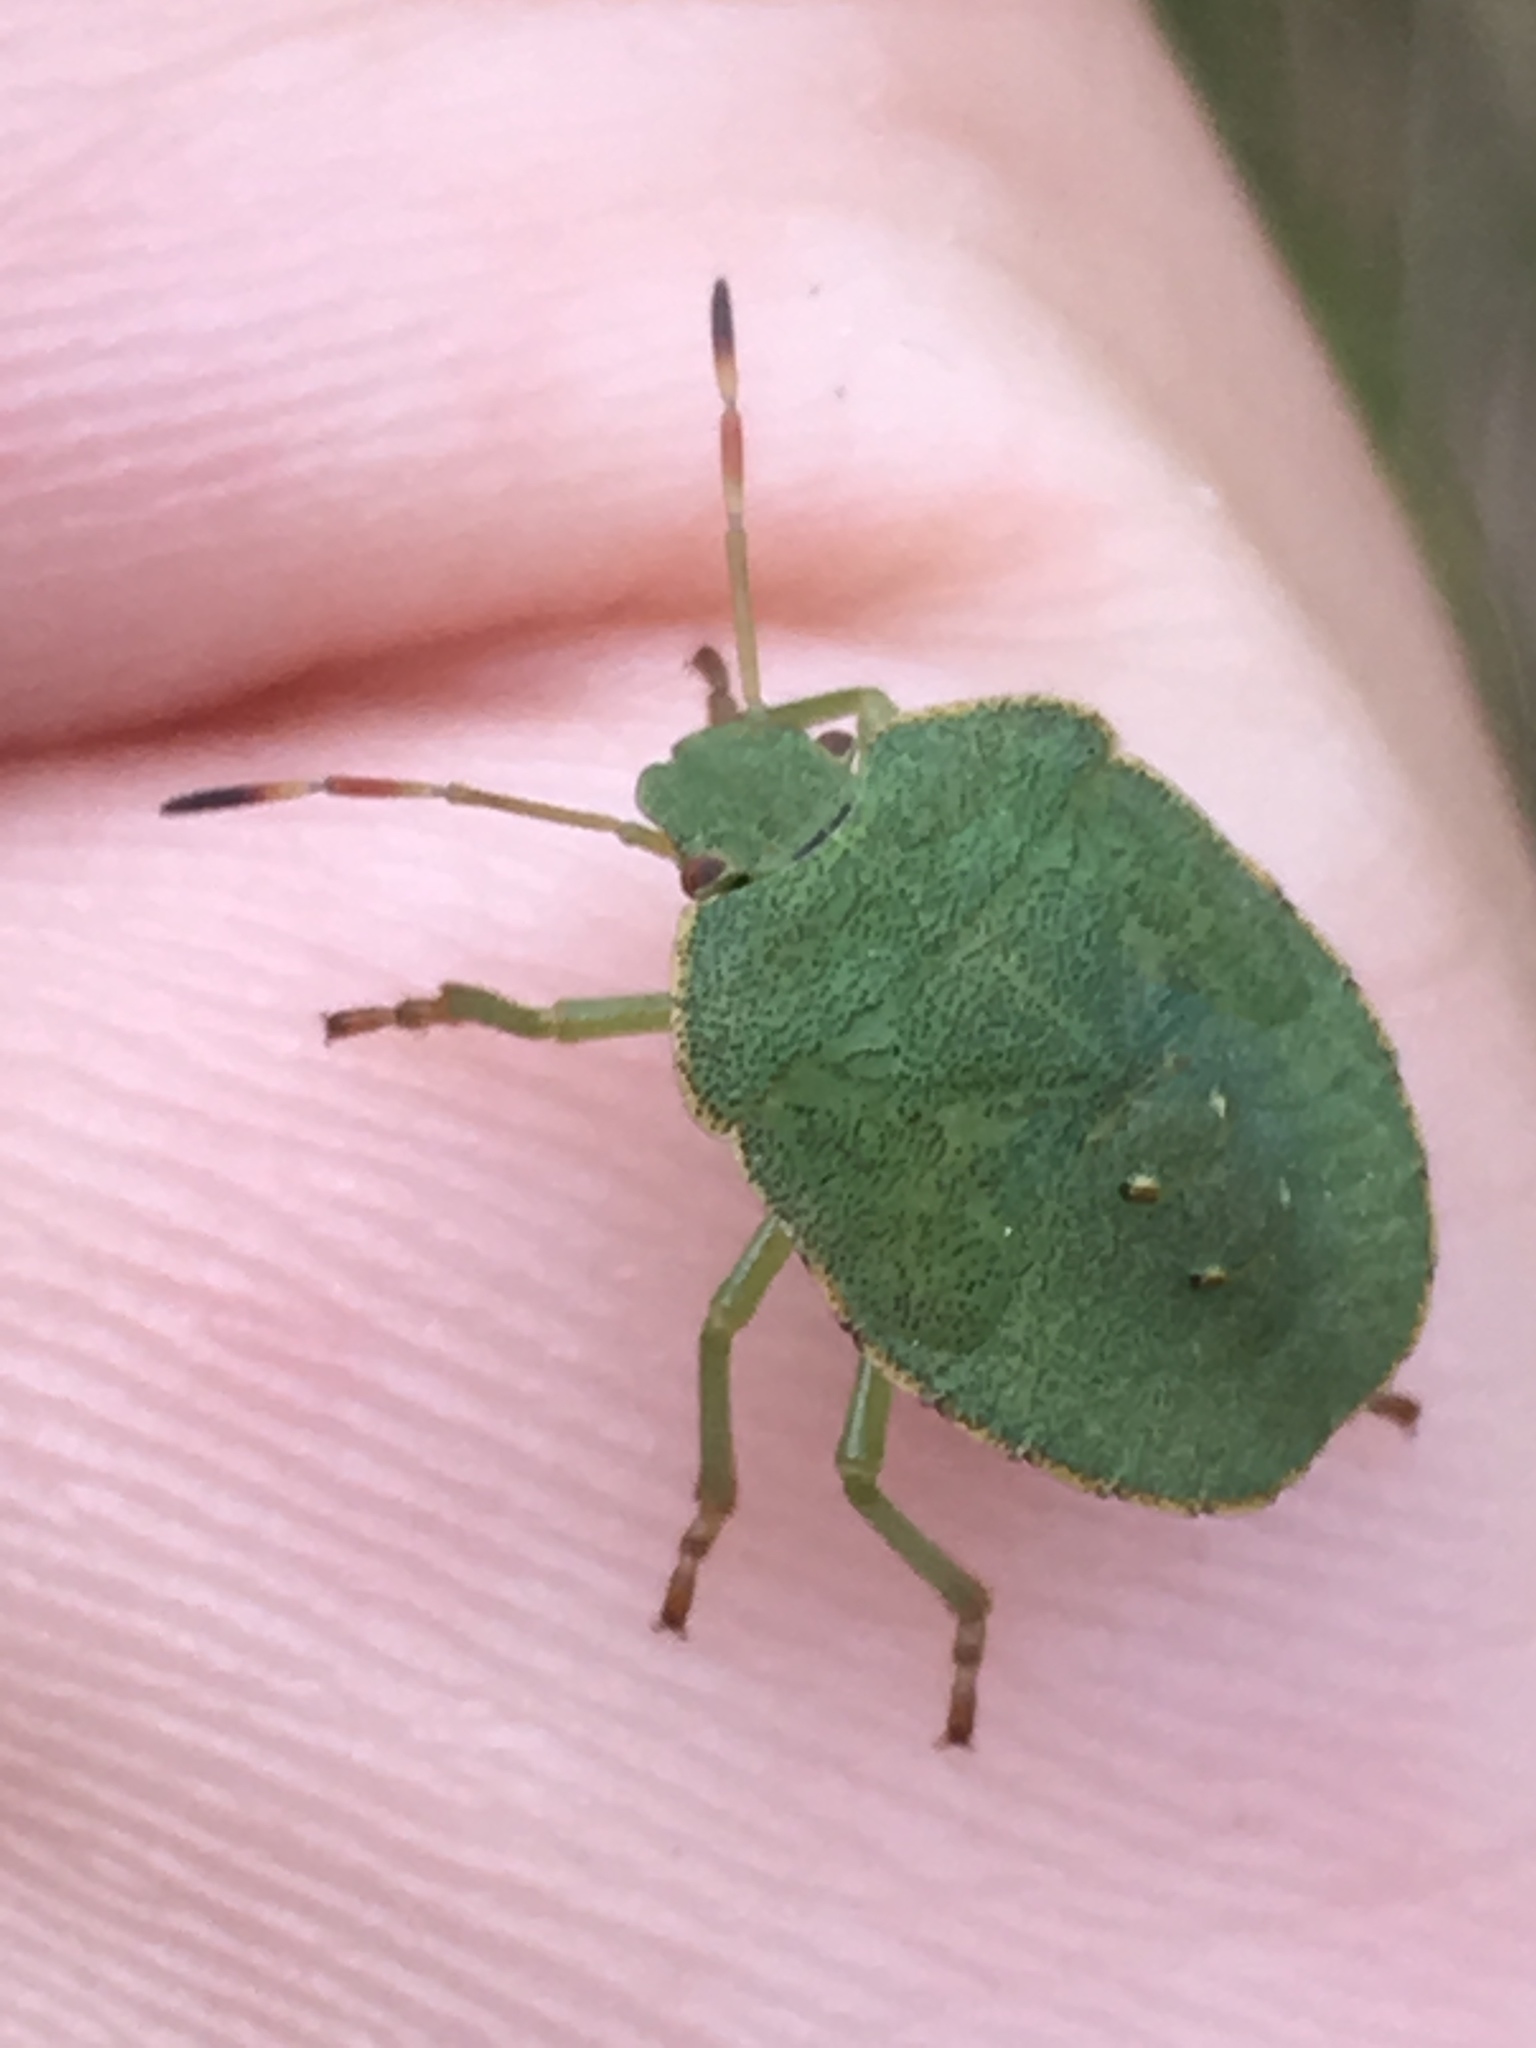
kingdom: Animalia
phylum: Arthropoda
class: Insecta
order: Hemiptera
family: Pentatomidae
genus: Palomena
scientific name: Palomena prasina
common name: Green shieldbug
